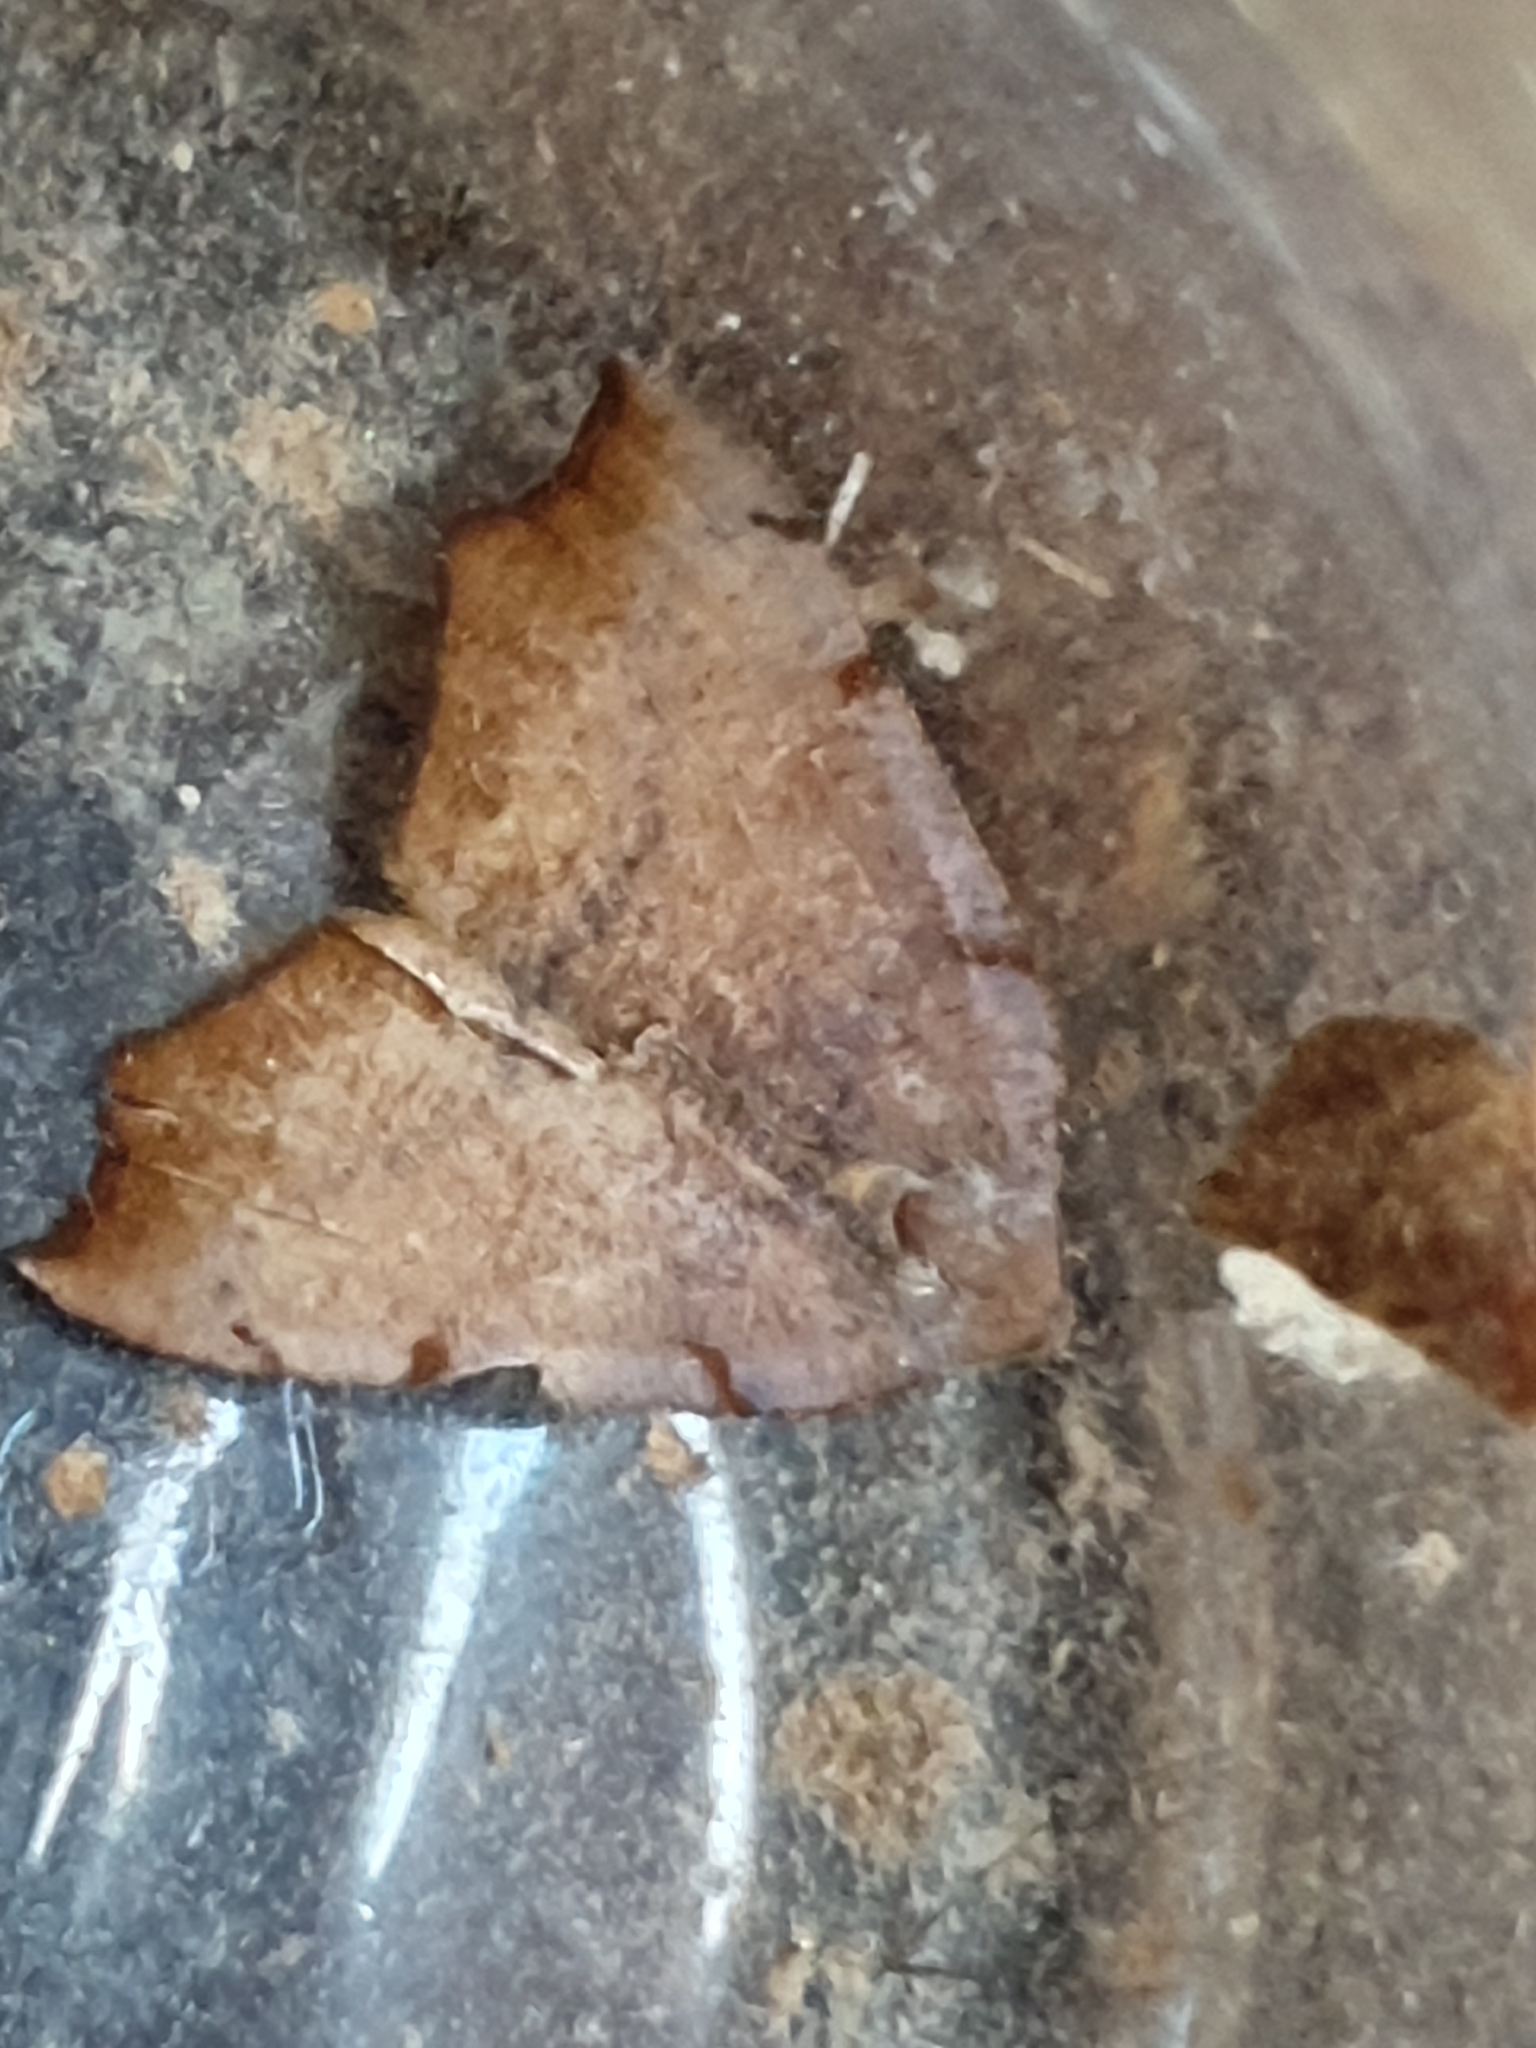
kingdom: Animalia
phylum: Arthropoda
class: Insecta
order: Lepidoptera
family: Geometridae
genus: Sestra
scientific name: Sestra flexata
